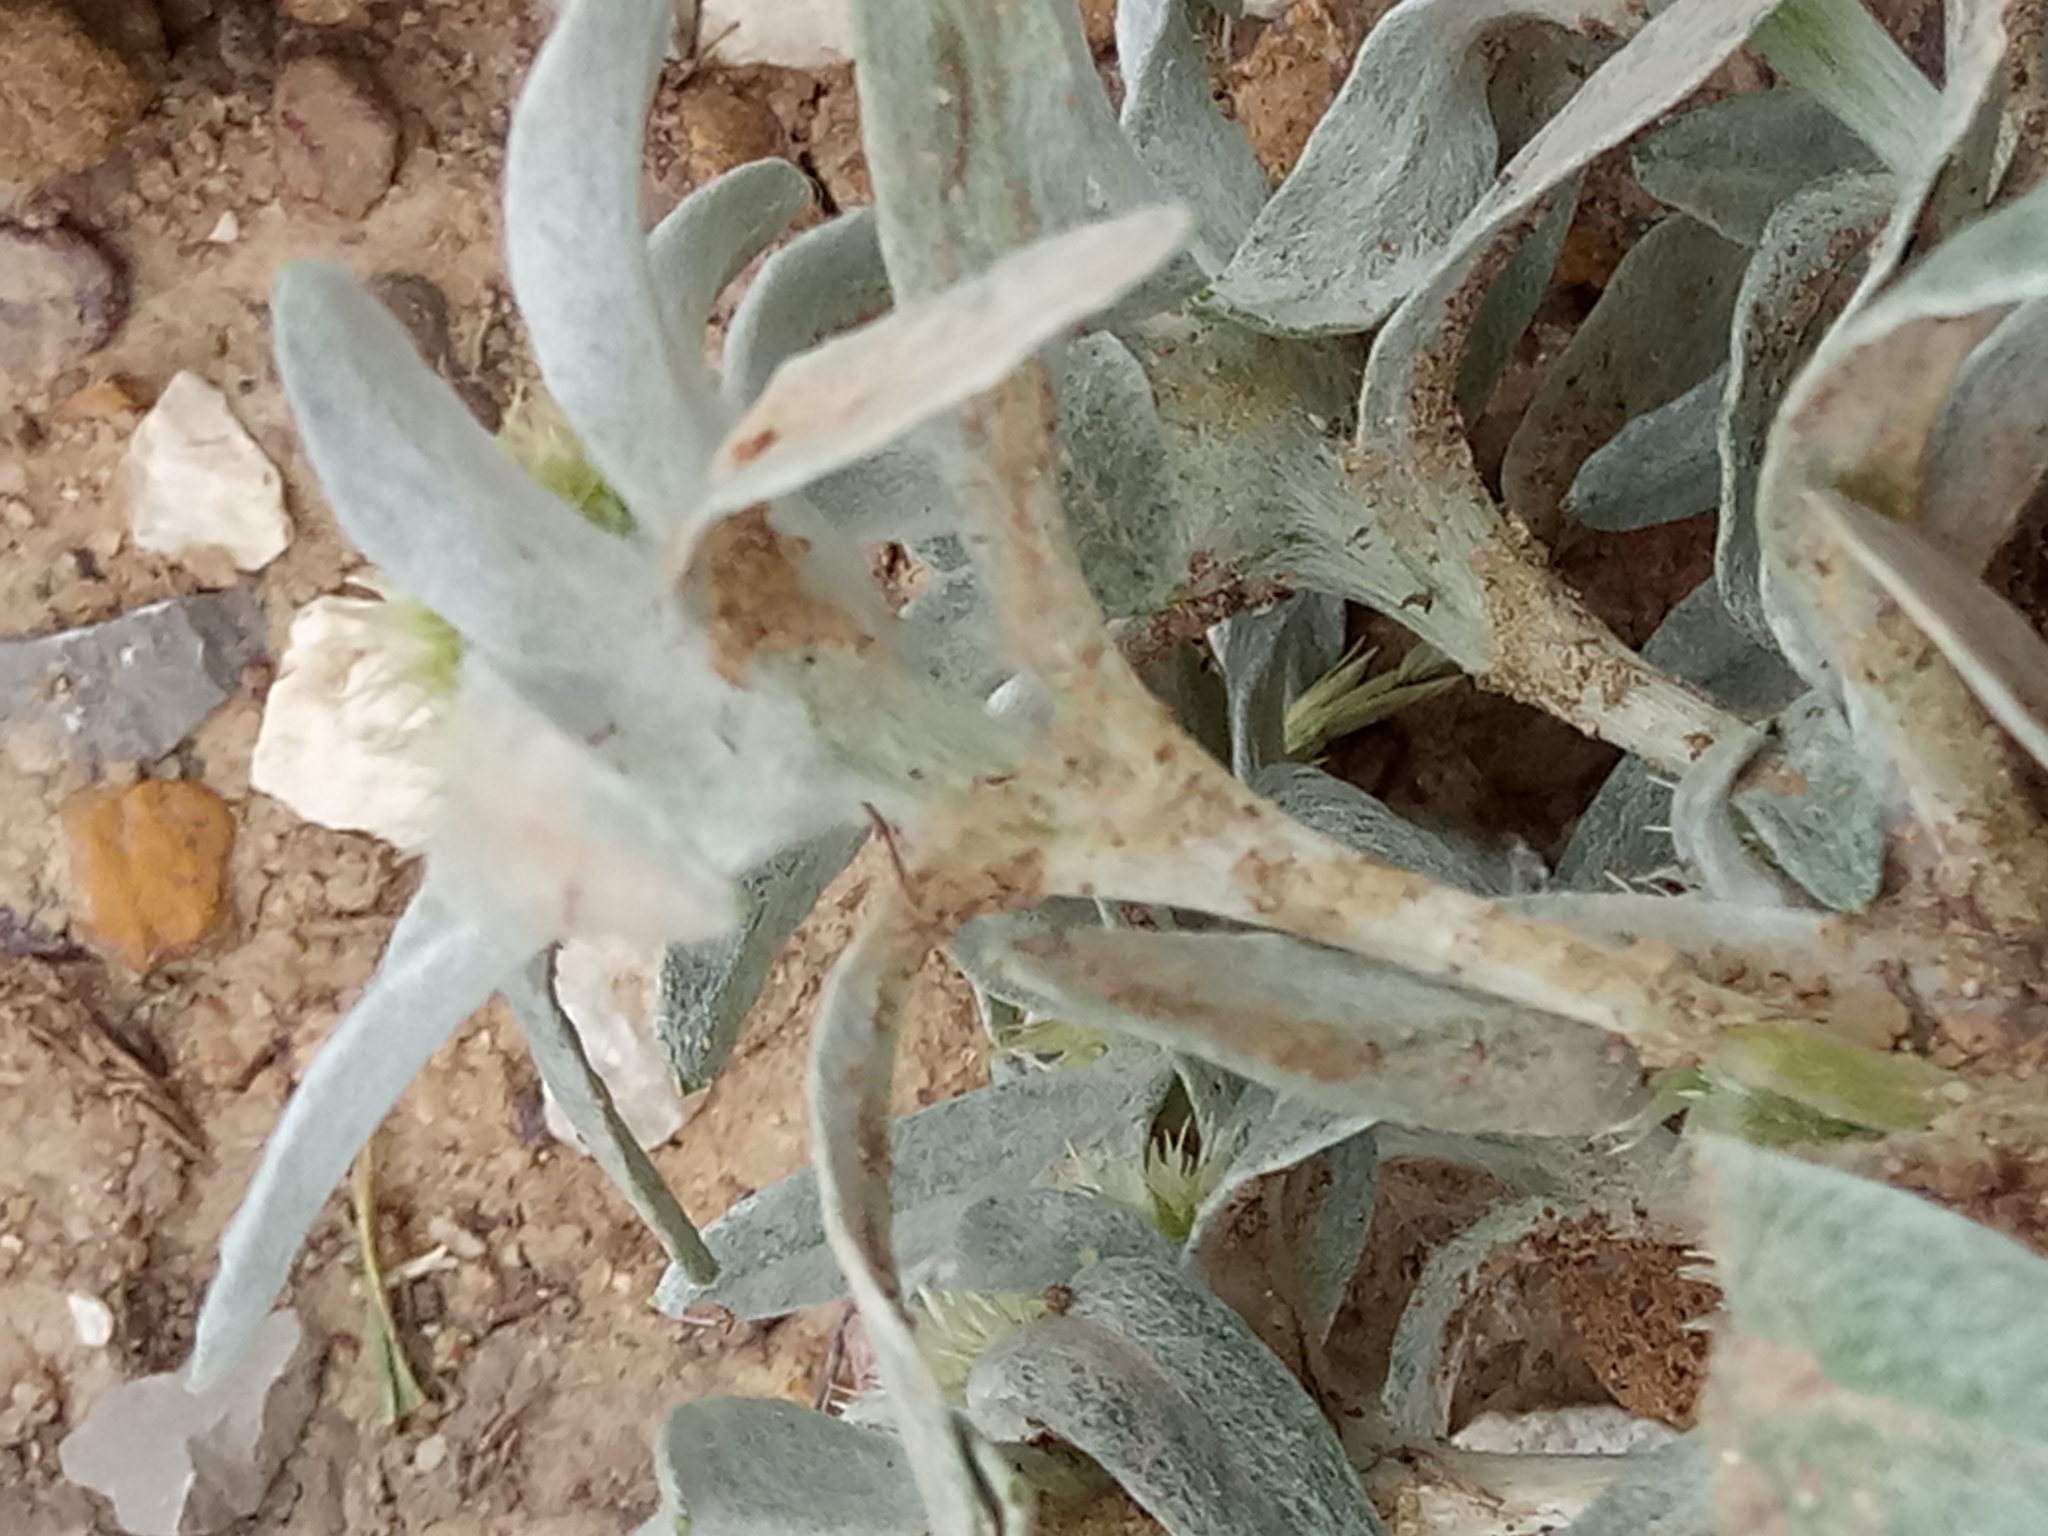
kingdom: Plantae
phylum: Tracheophyta
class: Magnoliopsida
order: Asterales
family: Asteraceae
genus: Filago
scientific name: Filago asterisciflora
